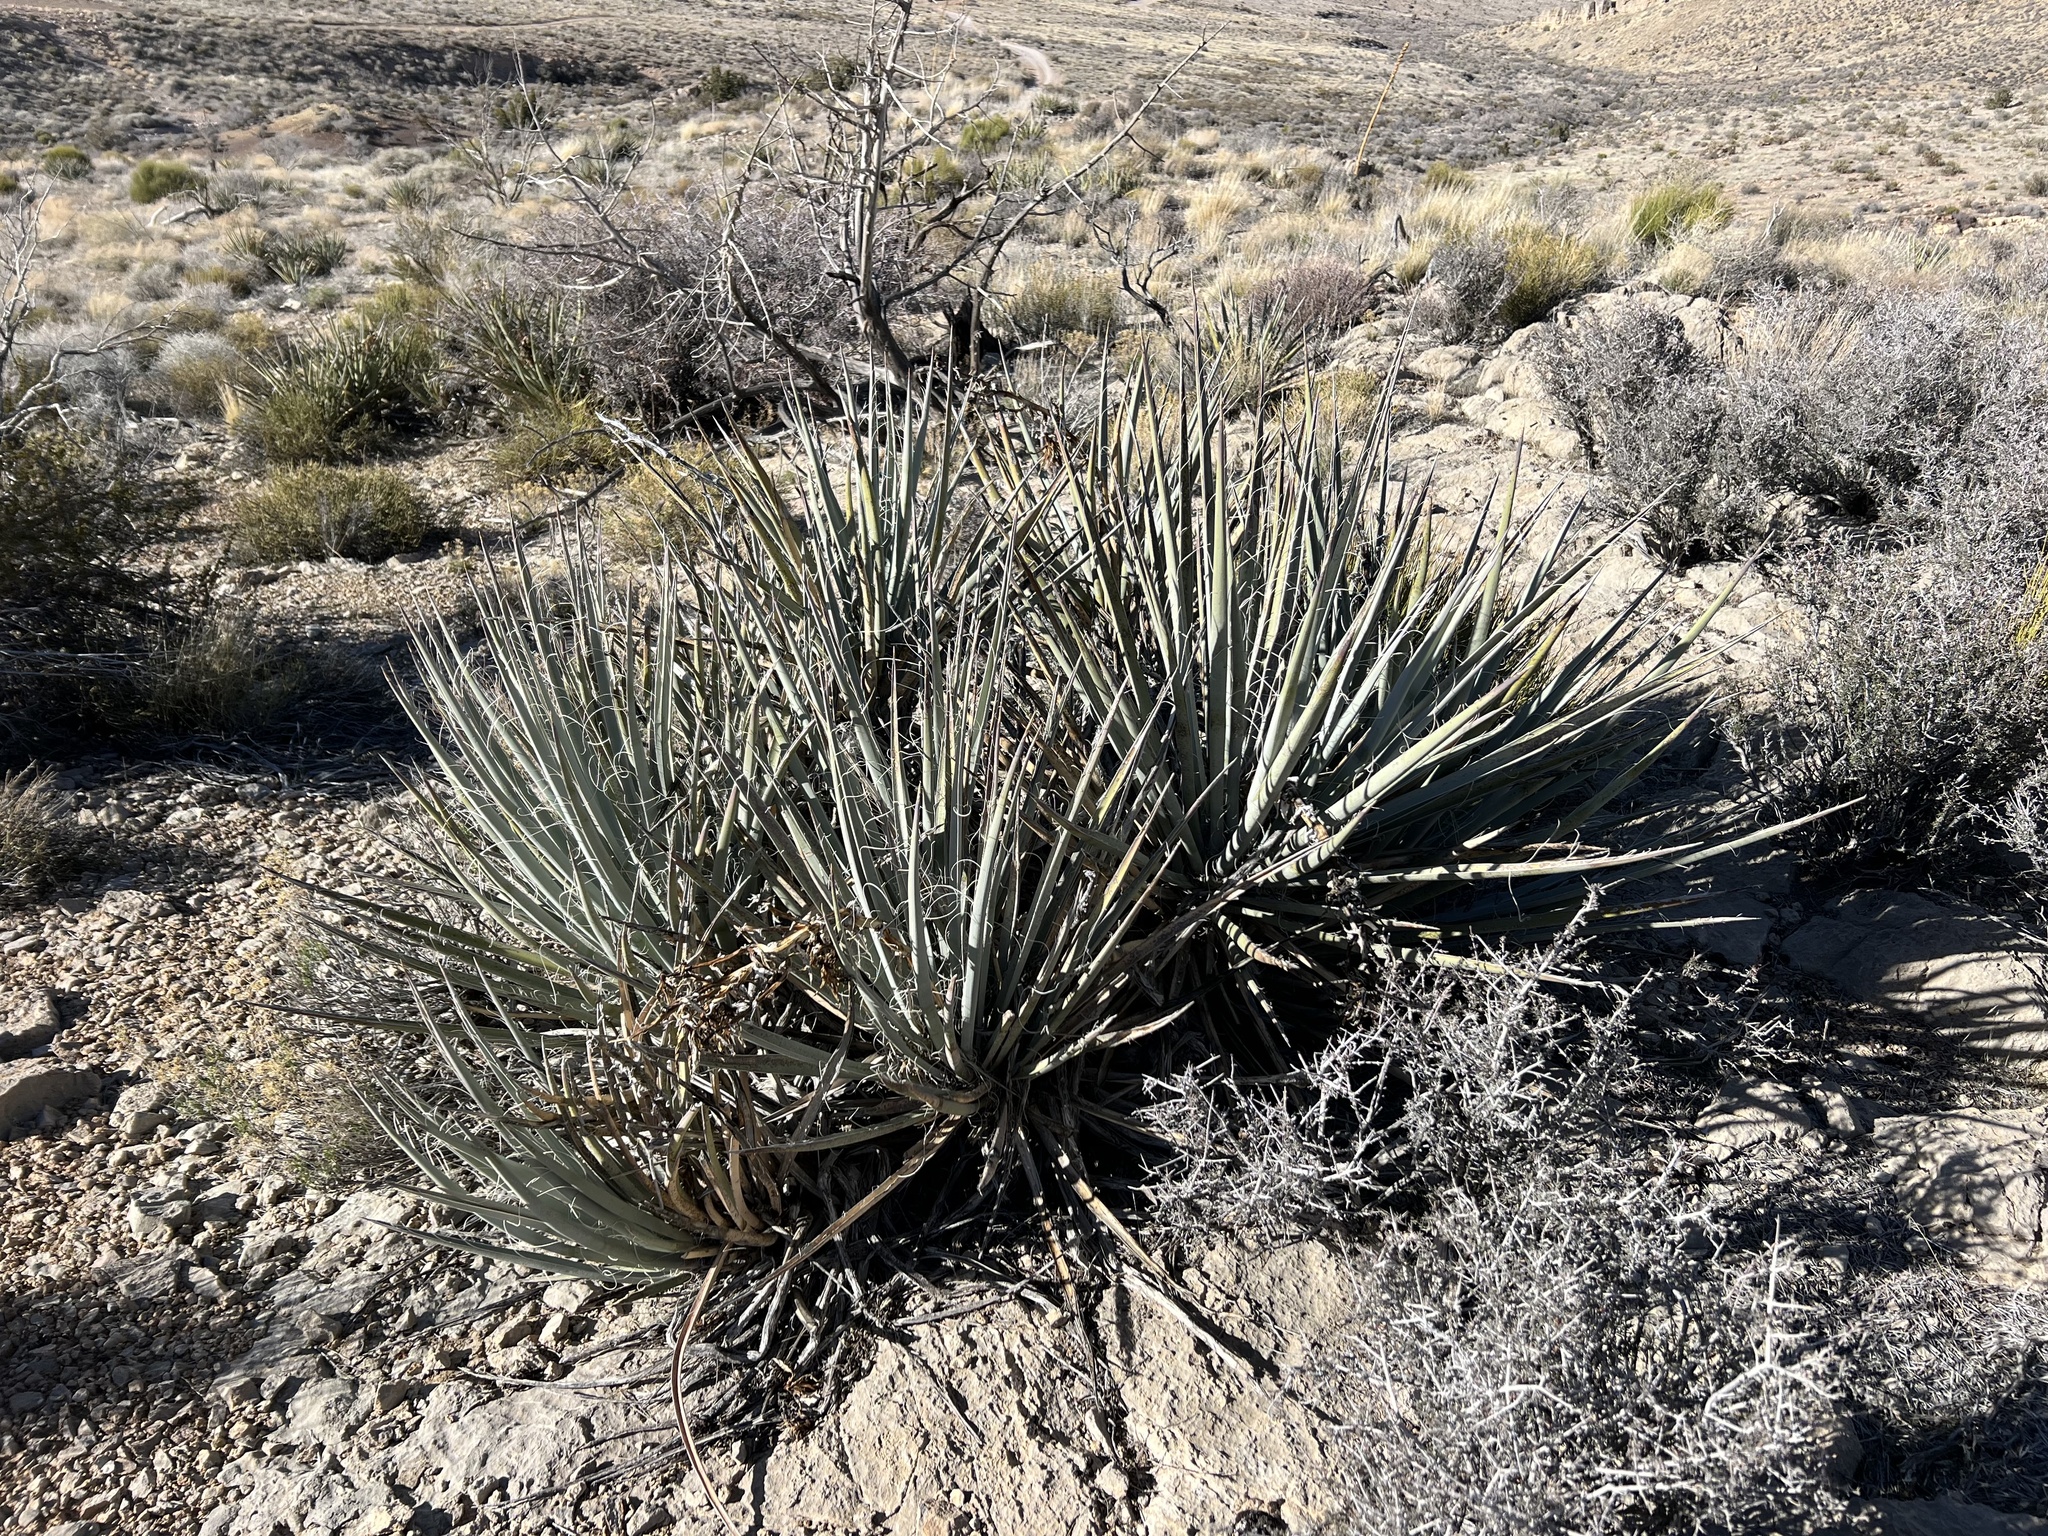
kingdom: Plantae
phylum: Tracheophyta
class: Liliopsida
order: Asparagales
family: Asparagaceae
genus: Yucca
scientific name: Yucca baccata
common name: Banana yucca
